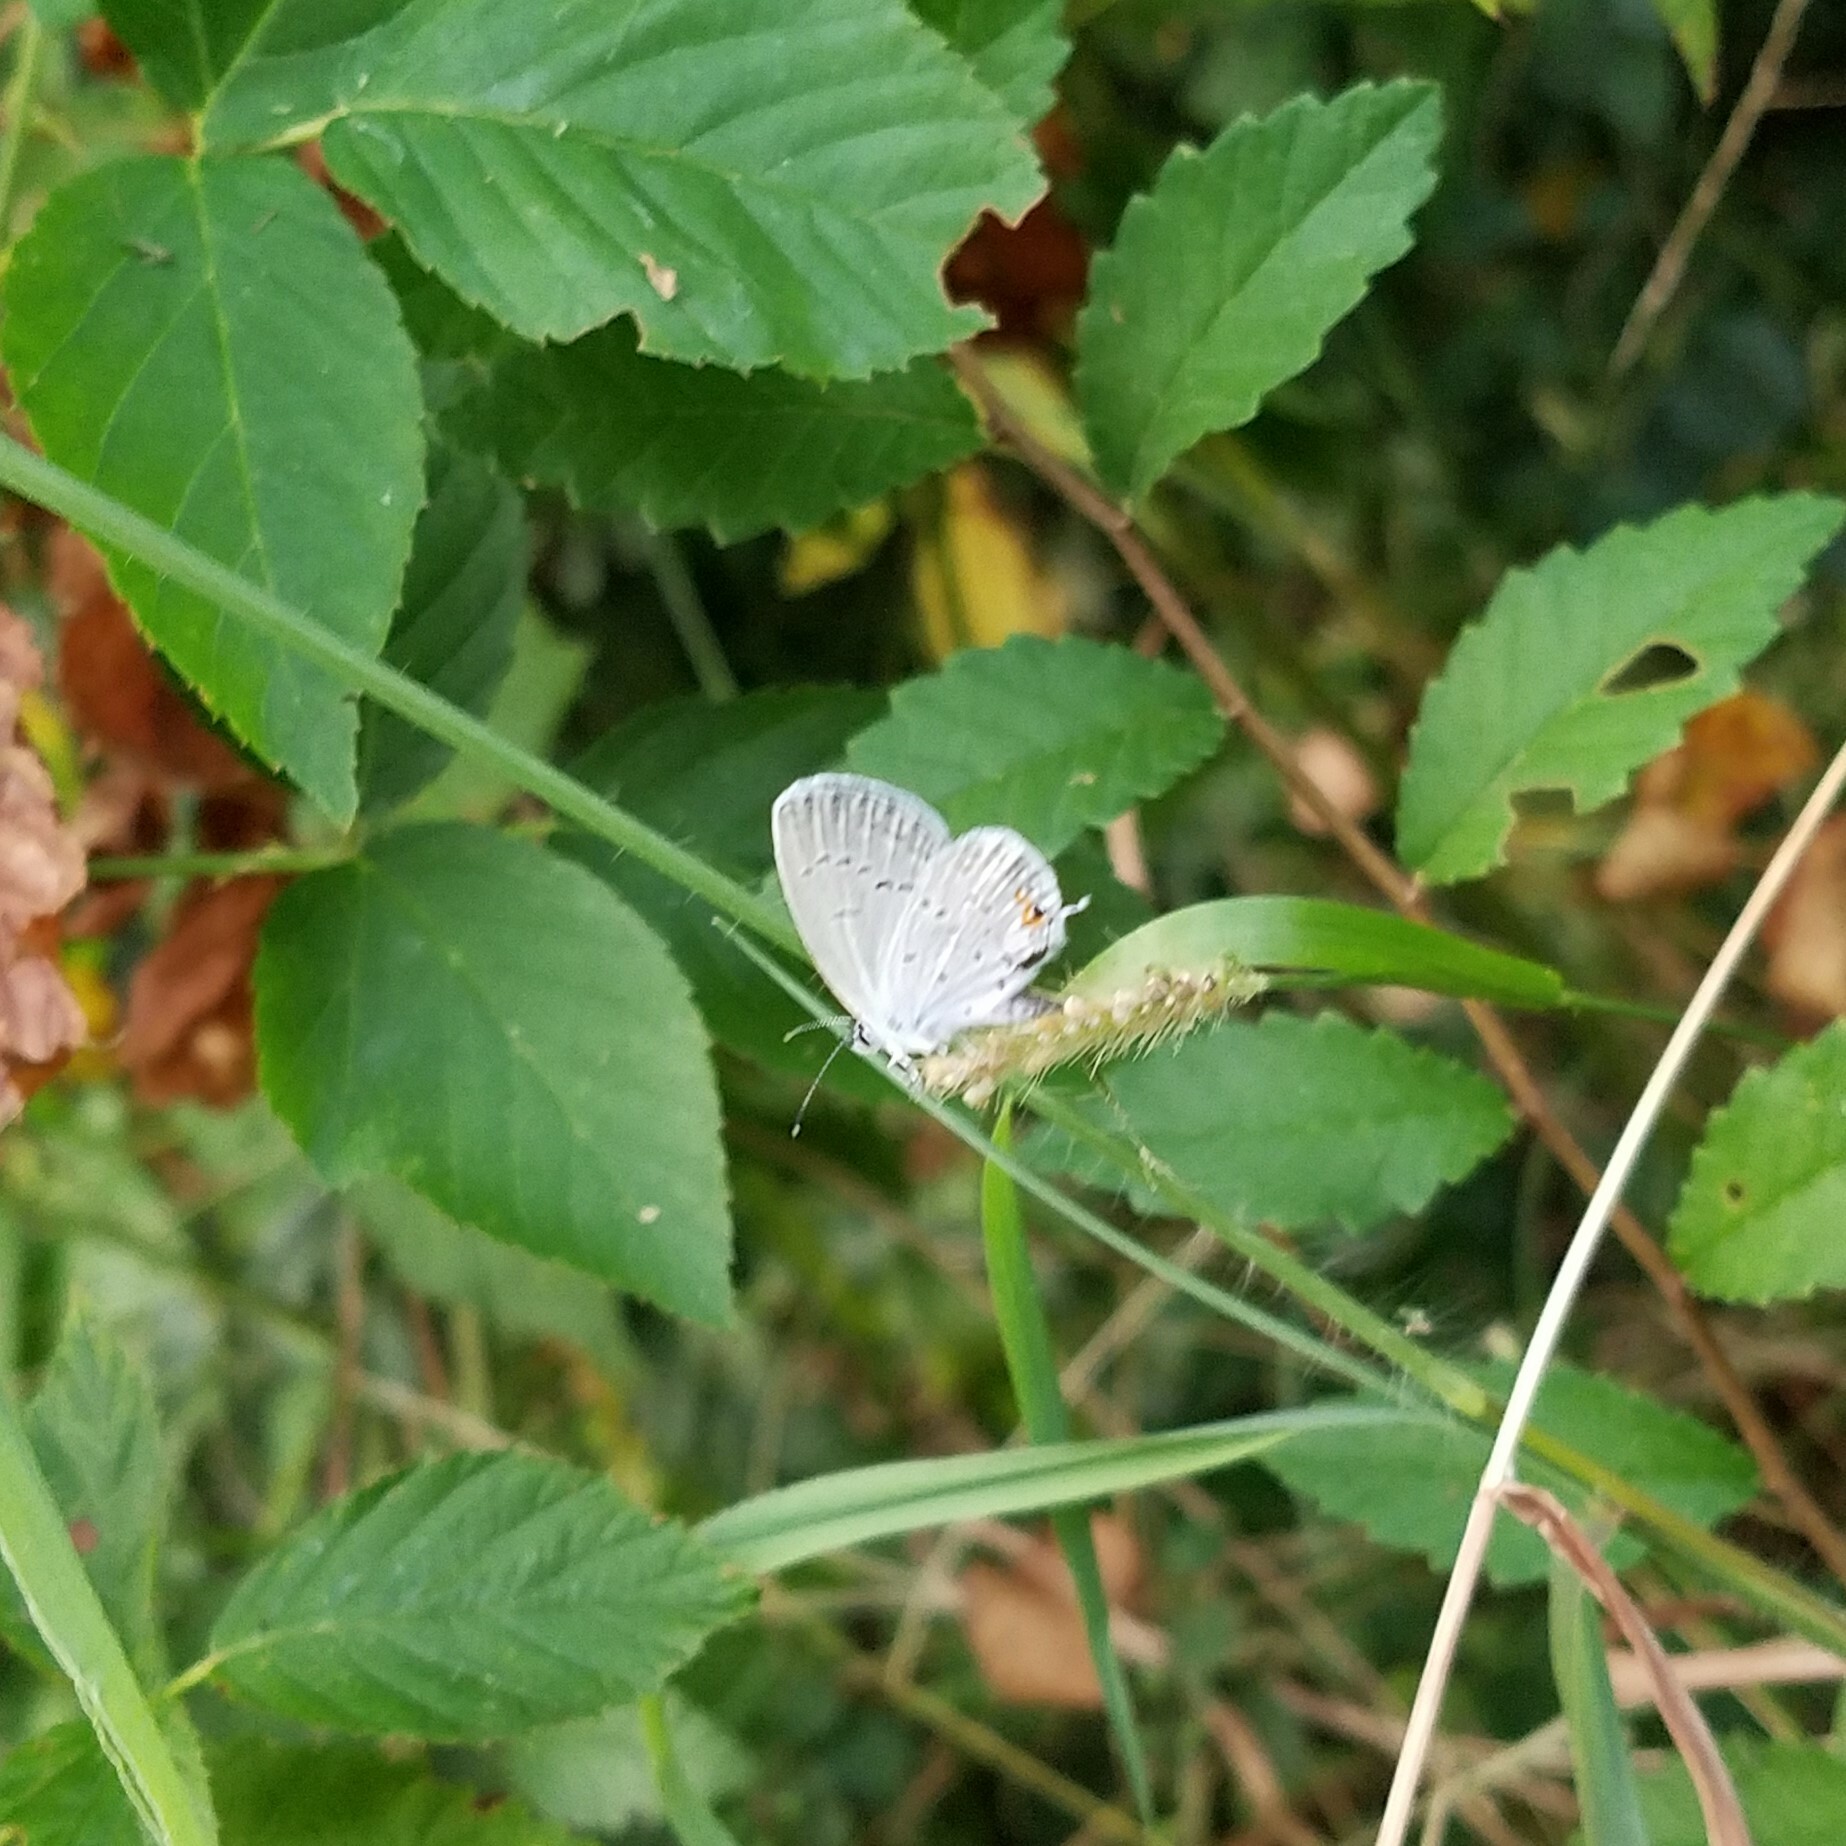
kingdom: Animalia
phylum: Arthropoda
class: Insecta
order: Lepidoptera
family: Lycaenidae
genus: Elkalyce
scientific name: Elkalyce comyntas
